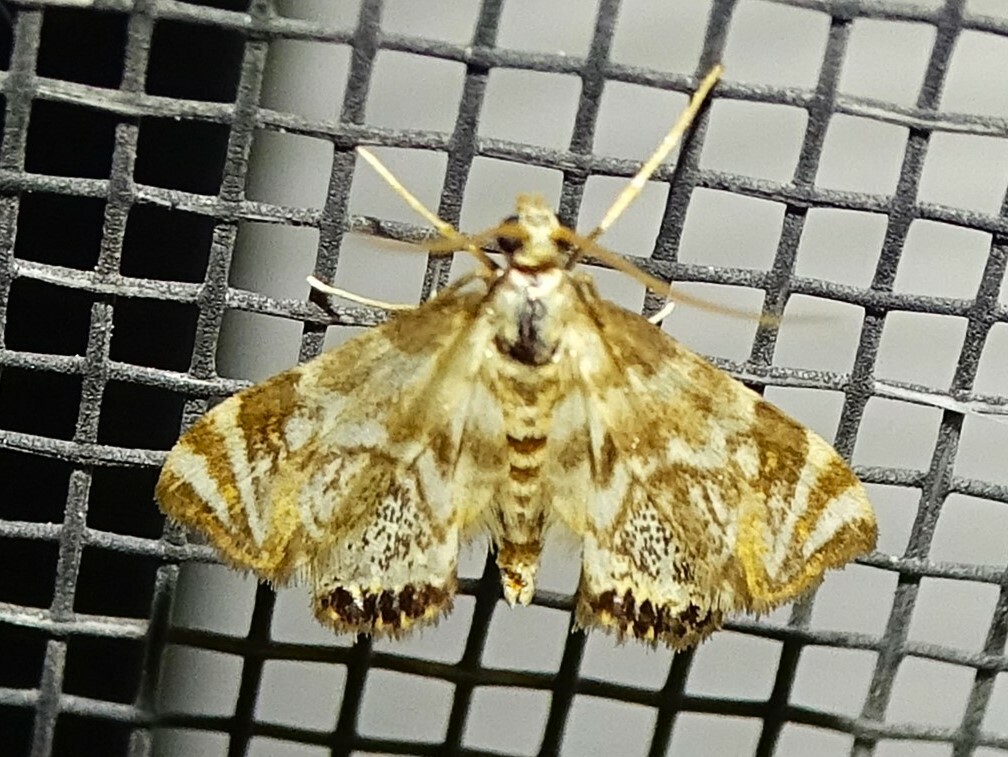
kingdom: Animalia
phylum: Arthropoda
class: Insecta
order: Lepidoptera
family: Crambidae
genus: Petrophila
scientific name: Petrophila canadensis
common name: Canadian petrophila
